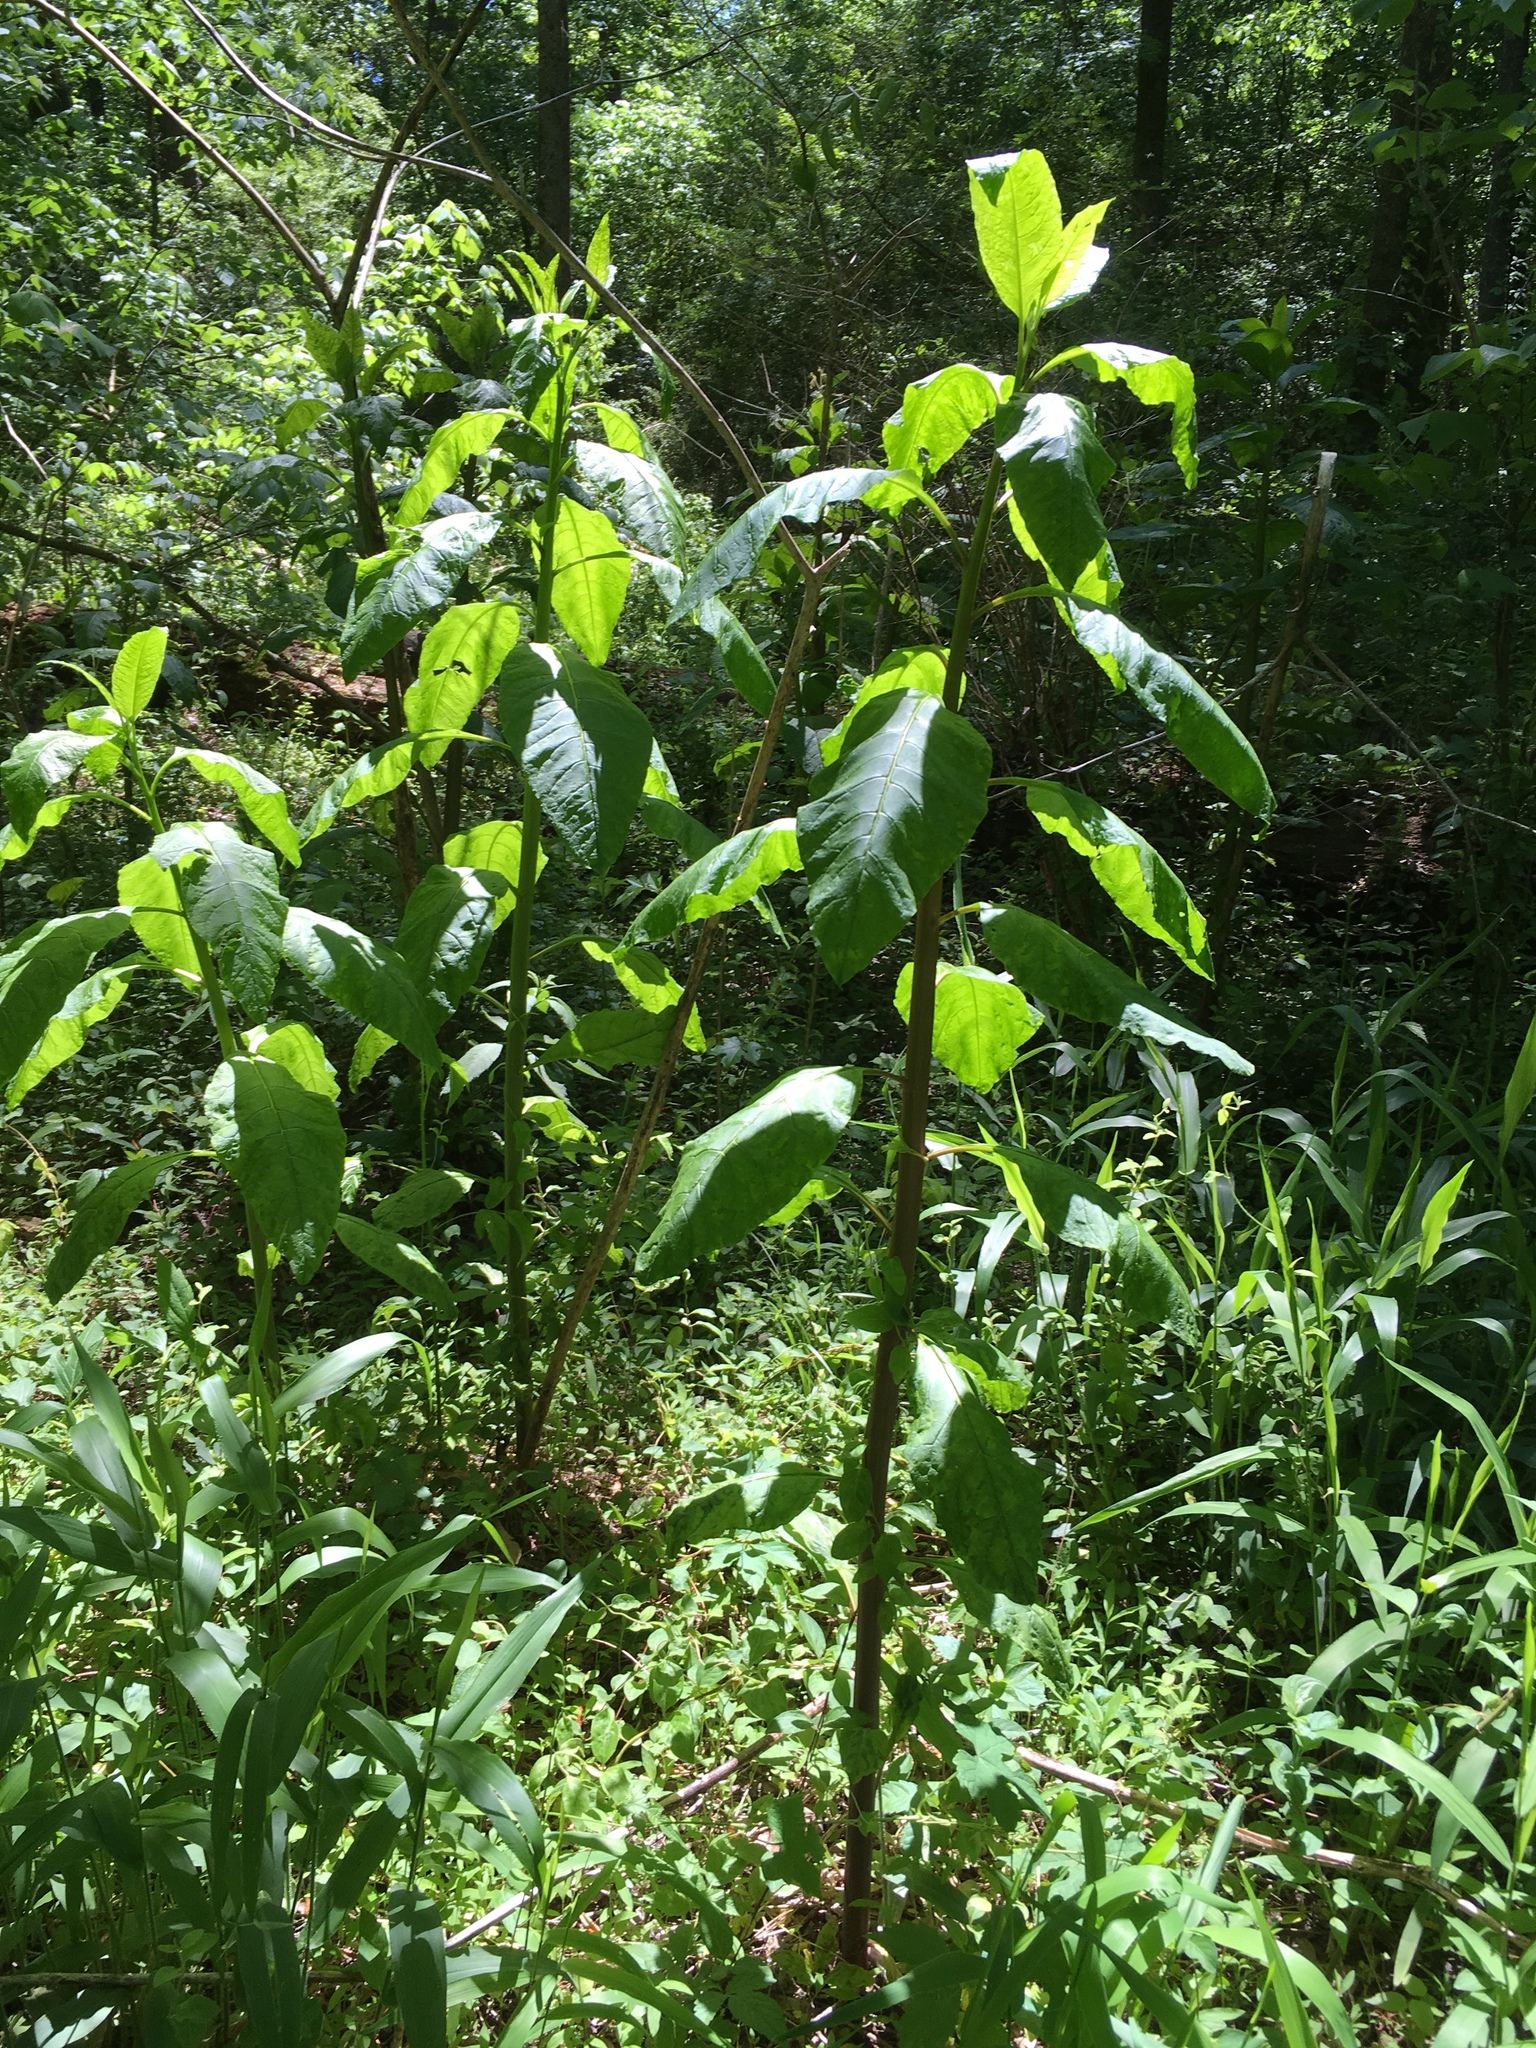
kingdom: Plantae
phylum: Tracheophyta
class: Magnoliopsida
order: Caryophyllales
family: Phytolaccaceae
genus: Phytolacca
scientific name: Phytolacca americana
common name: American pokeweed
